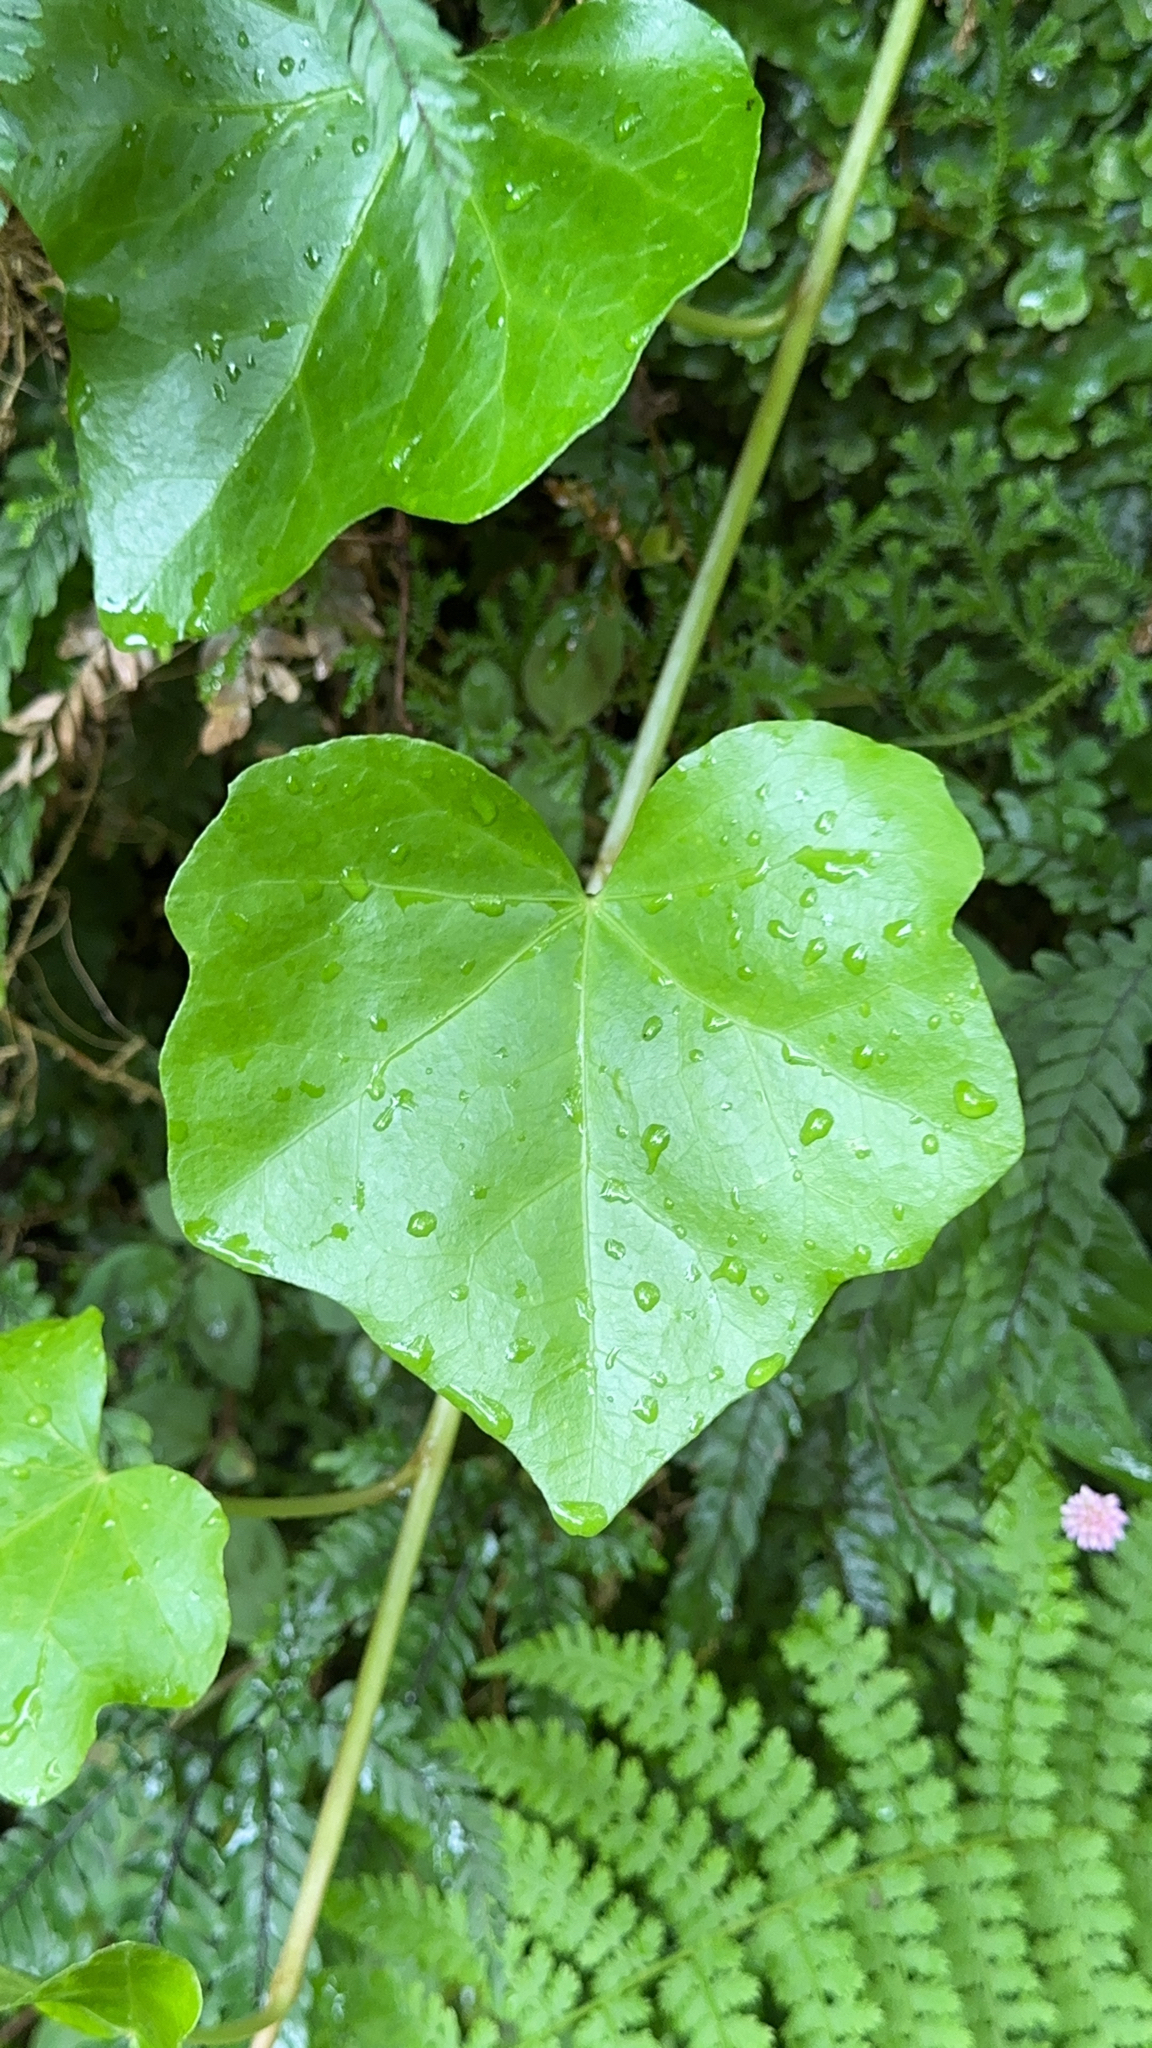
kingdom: Plantae
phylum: Tracheophyta
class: Magnoliopsida
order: Apiales
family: Araliaceae
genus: Hedera
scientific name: Hedera azorica
